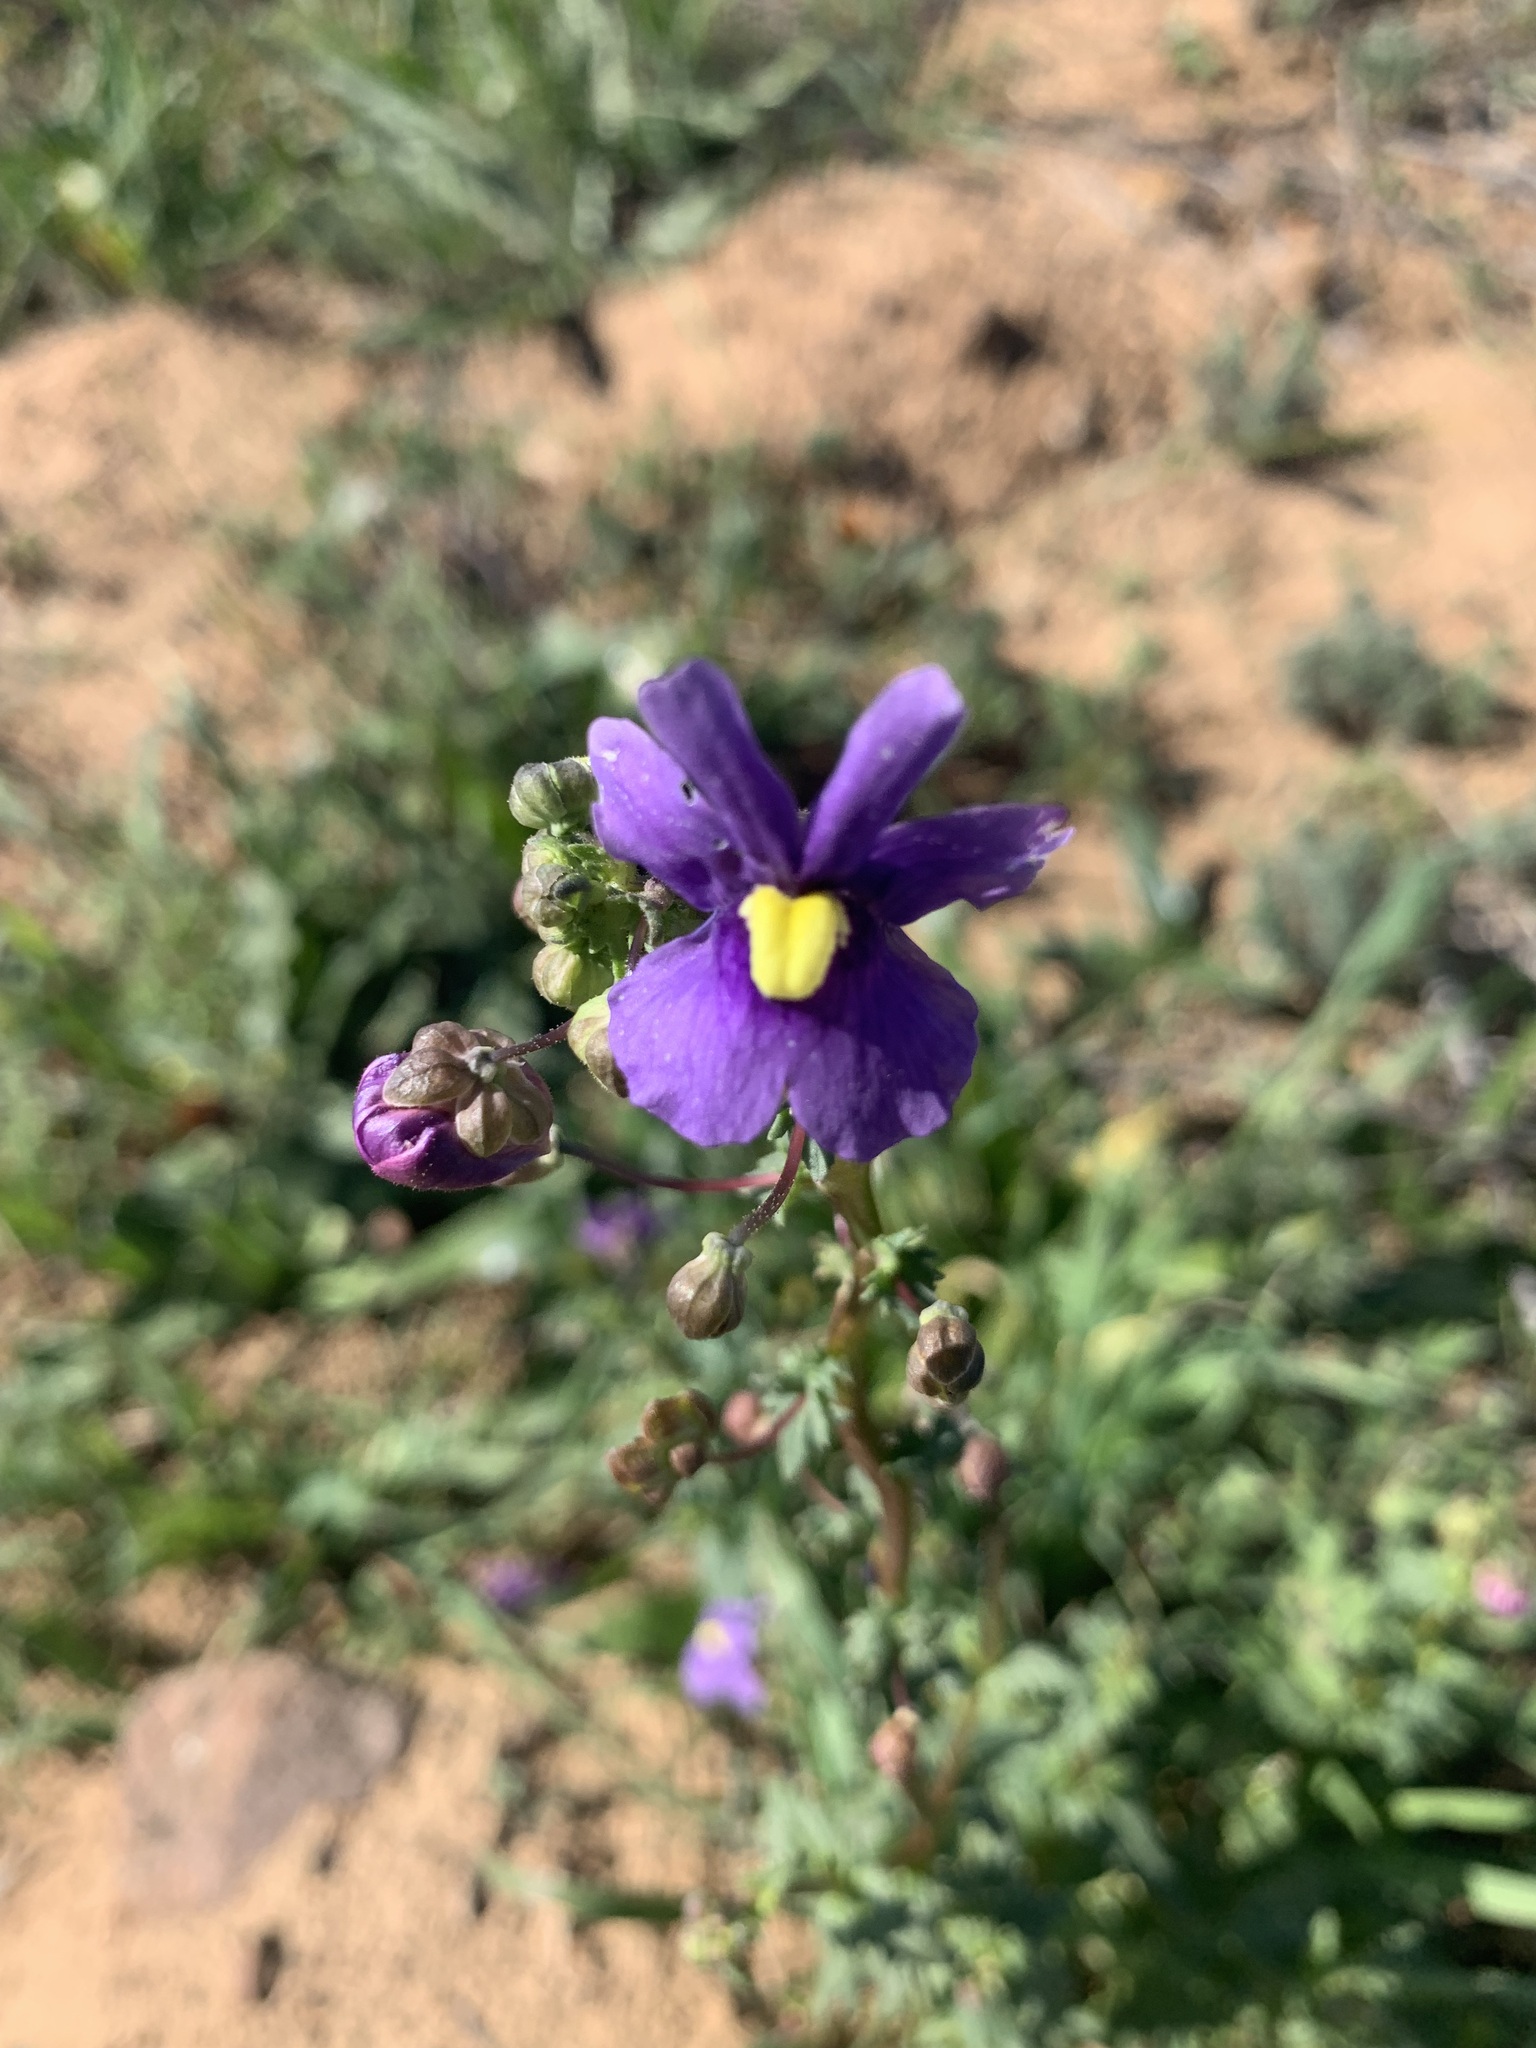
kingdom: Plantae
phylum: Tracheophyta
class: Magnoliopsida
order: Lamiales
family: Scrophulariaceae
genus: Nemesia
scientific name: Nemesia leipoldtii
